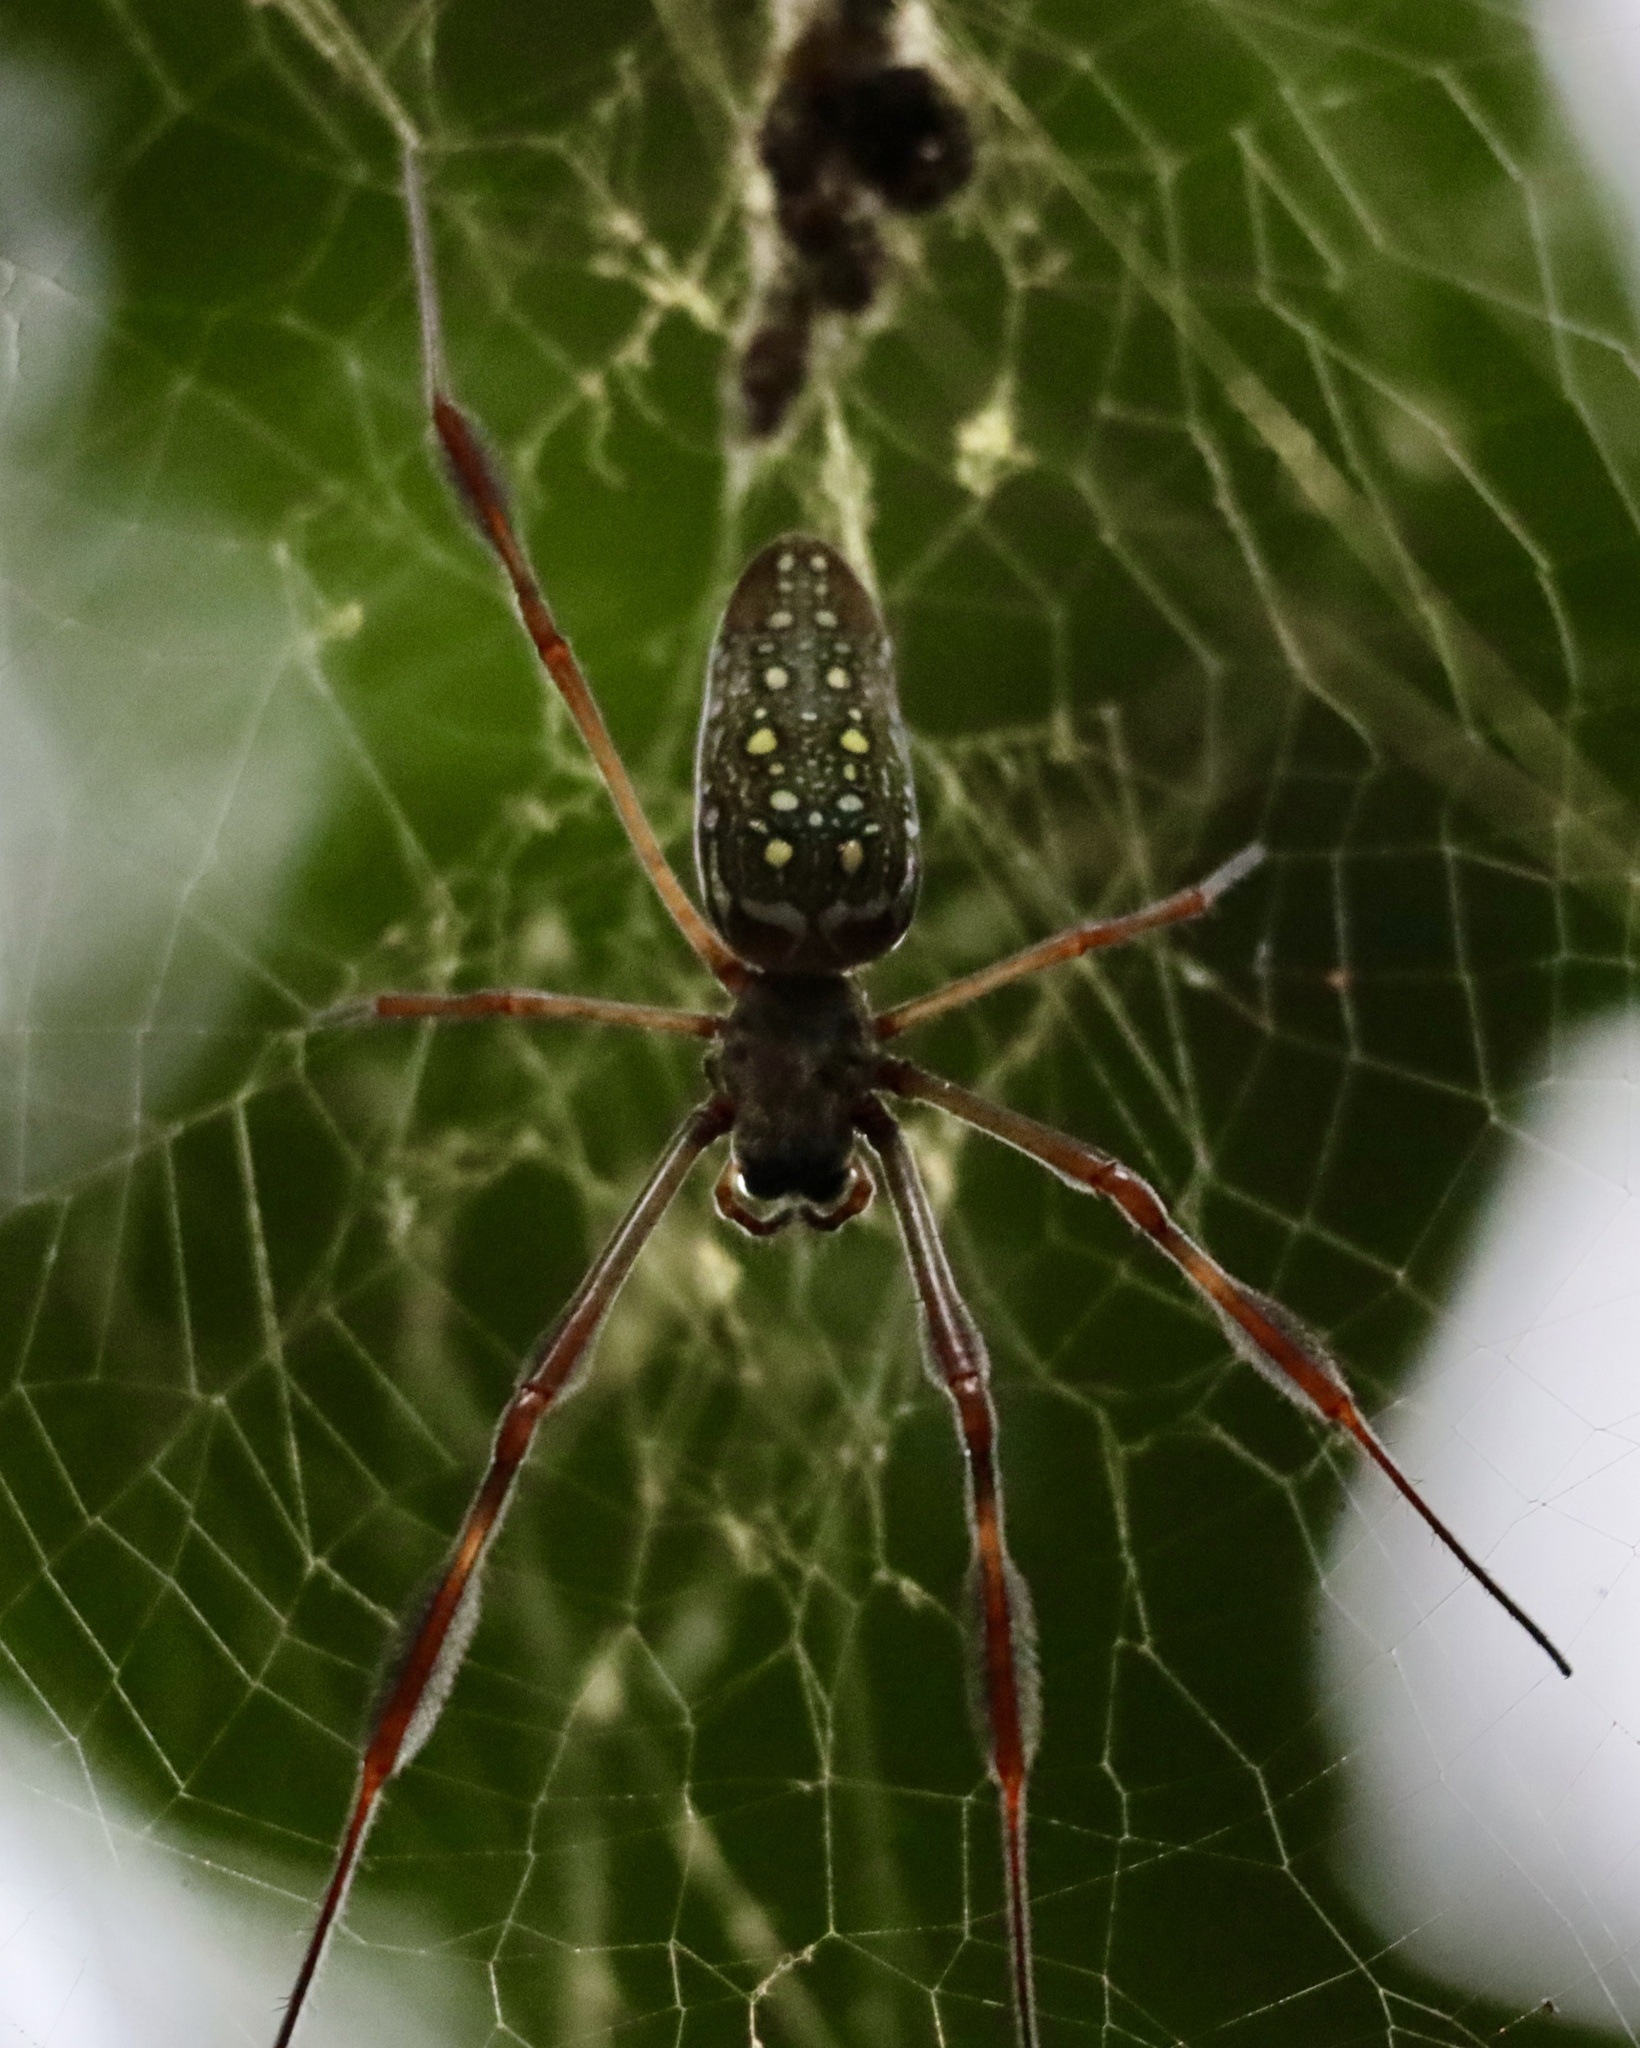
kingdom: Animalia
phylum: Arthropoda
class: Arachnida
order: Araneae
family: Araneidae
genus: Trichonephila
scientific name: Trichonephila clavipes
